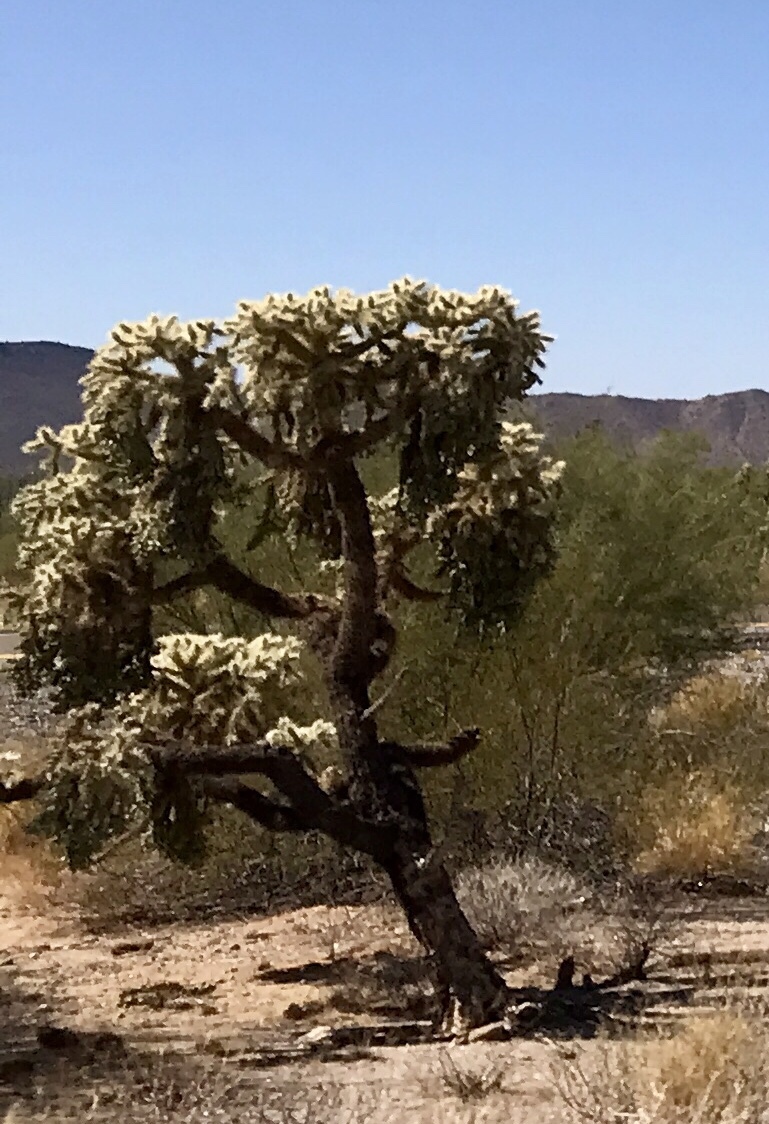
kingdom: Plantae
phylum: Tracheophyta
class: Magnoliopsida
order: Caryophyllales
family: Cactaceae
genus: Cylindropuntia
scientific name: Cylindropuntia fulgida
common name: Jumping cholla
